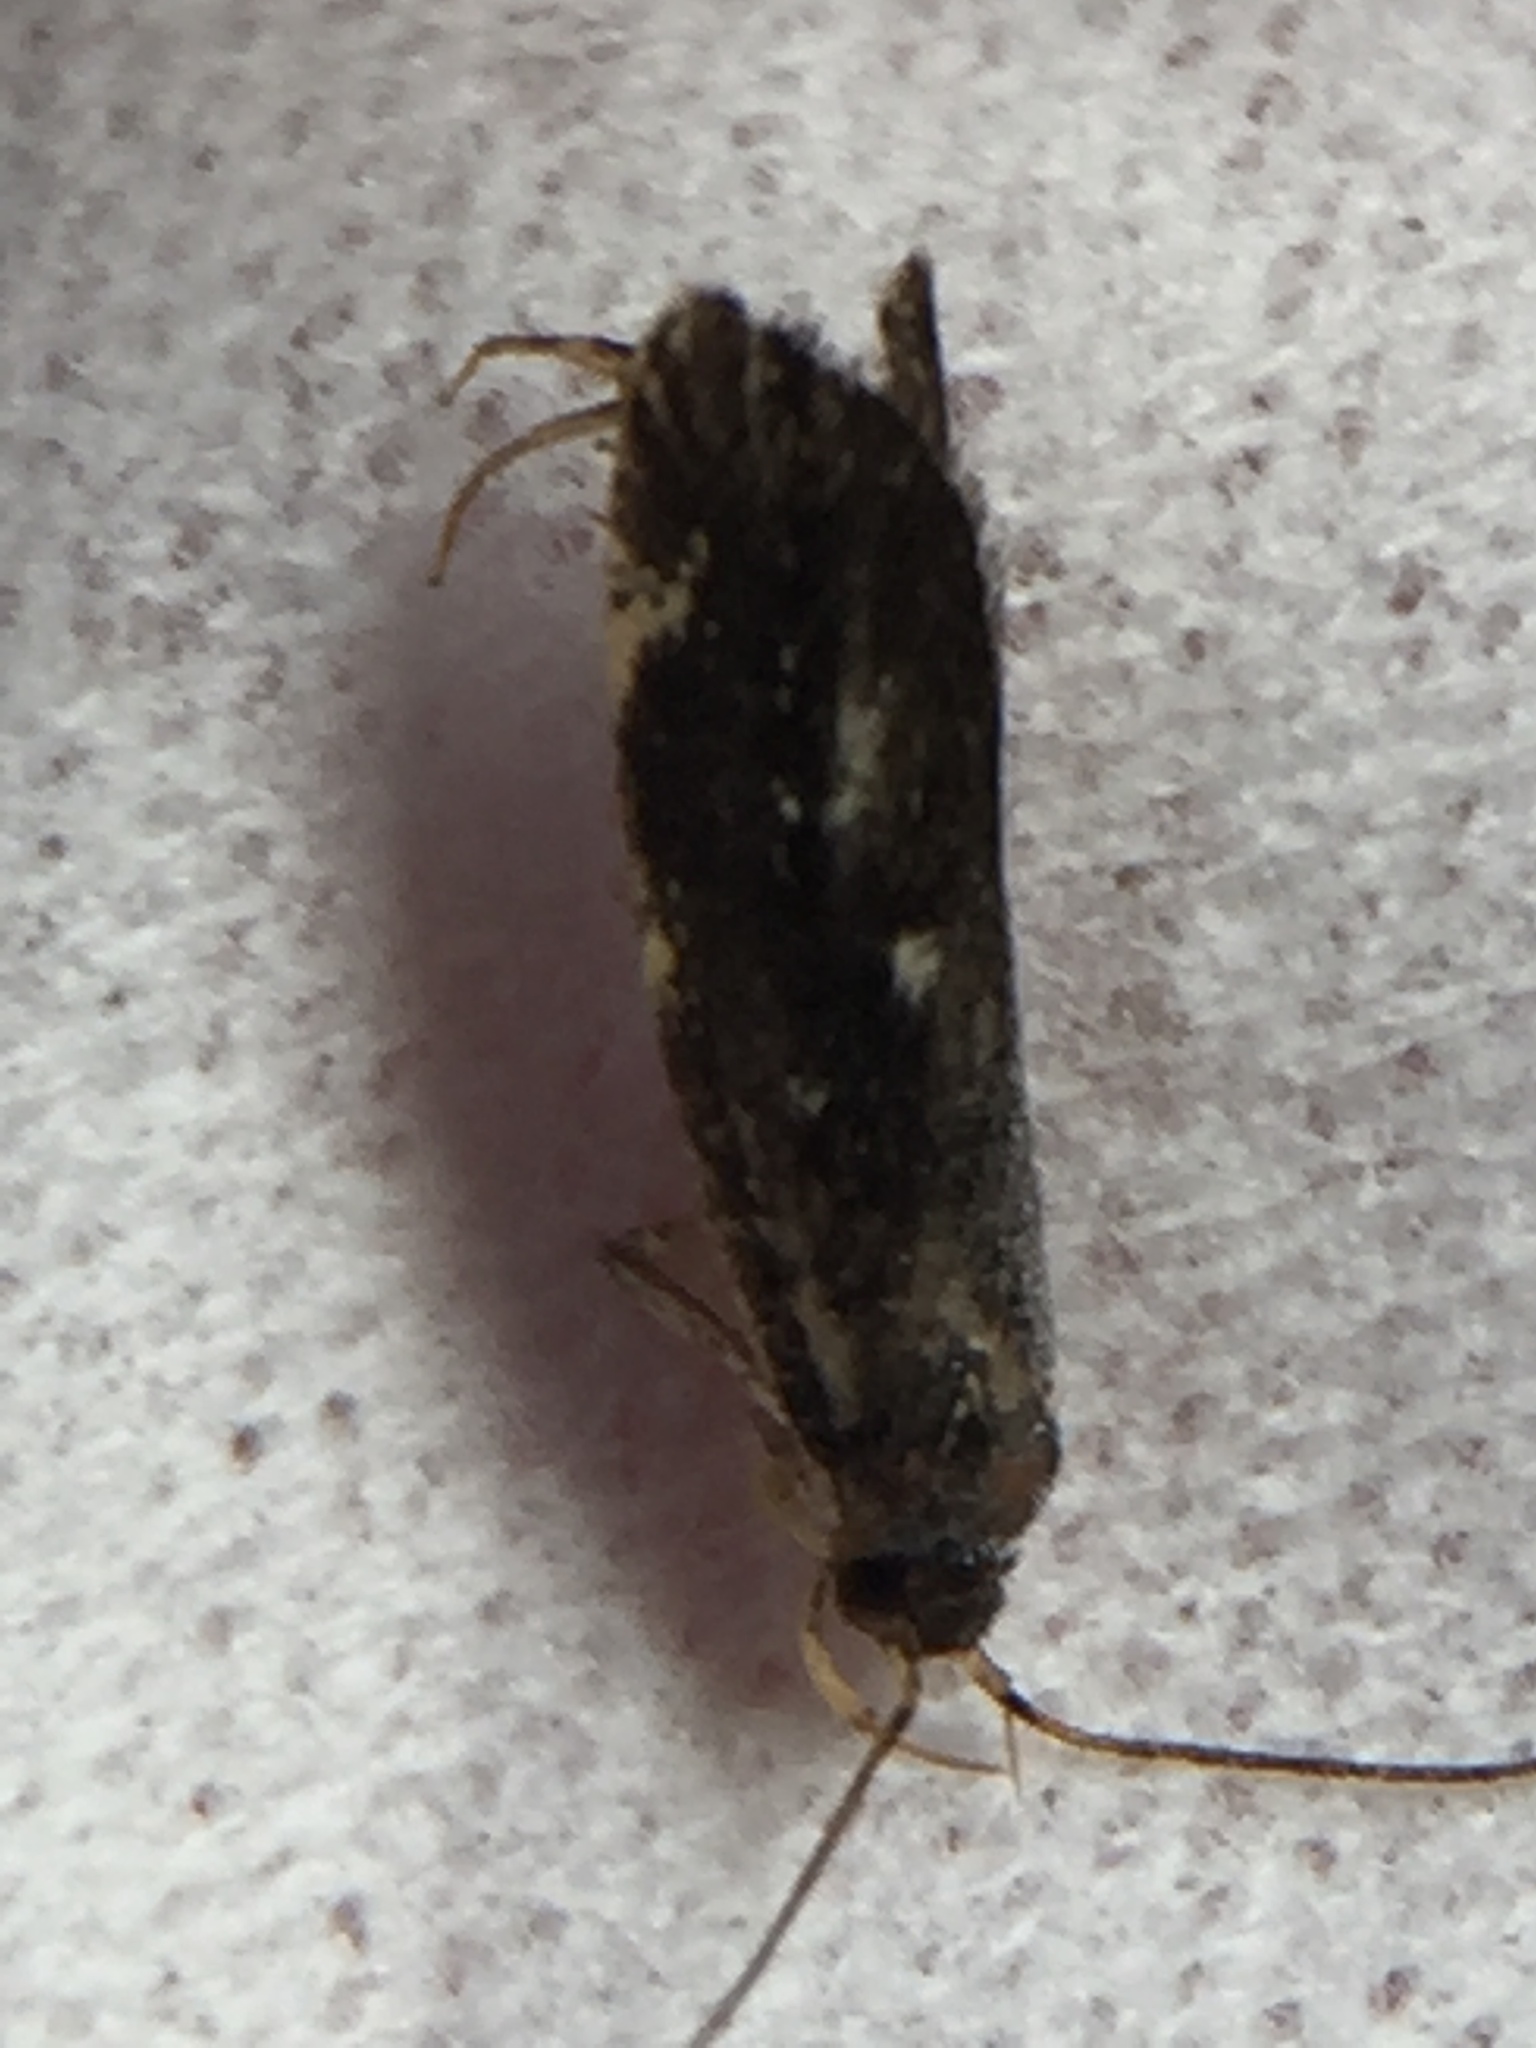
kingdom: Animalia
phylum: Arthropoda
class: Insecta
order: Lepidoptera
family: Oecophoridae
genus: Lathicrossa
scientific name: Lathicrossa leucocentra
